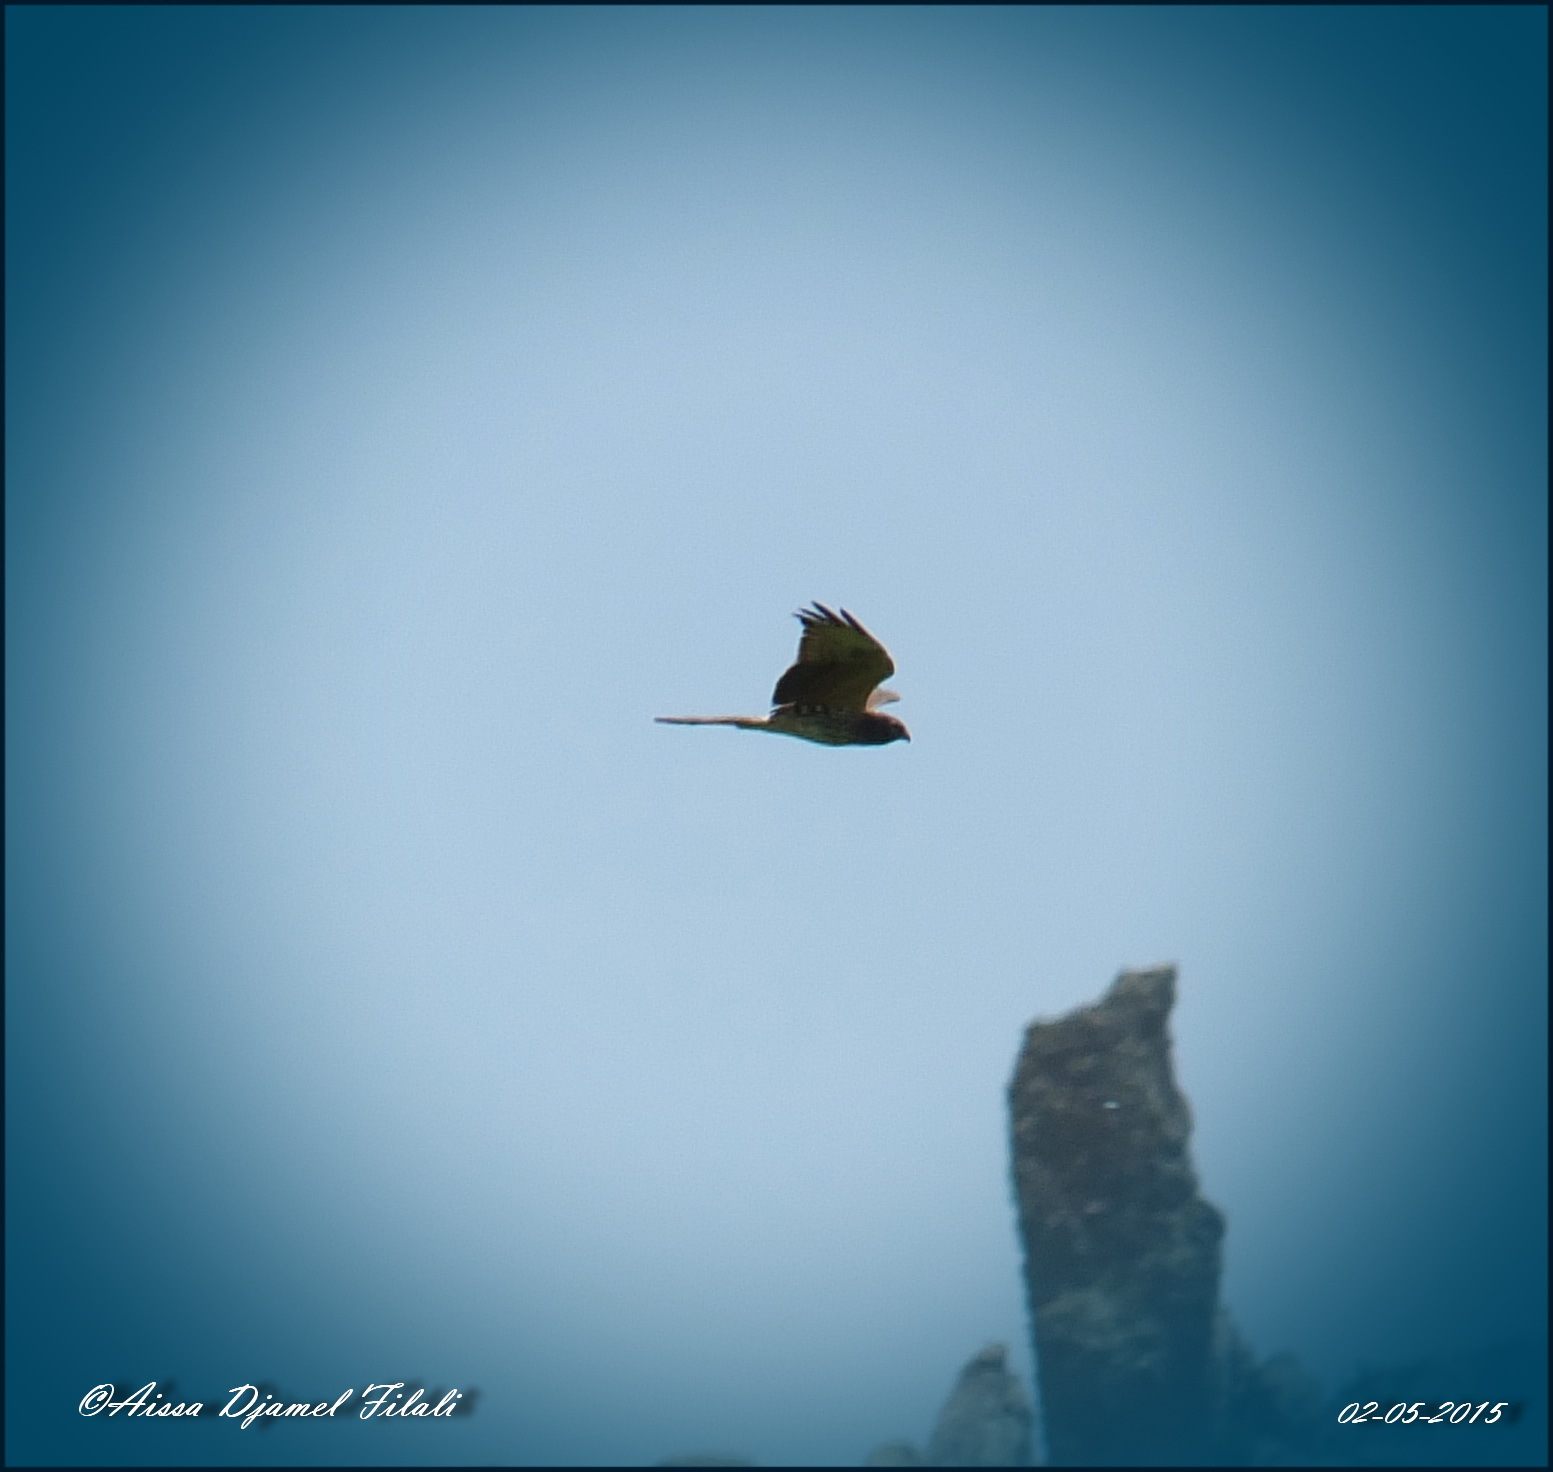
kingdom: Animalia
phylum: Chordata
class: Aves
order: Accipitriformes
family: Accipitridae
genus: Circus
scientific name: Circus pygargus
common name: Montagu's harrier
